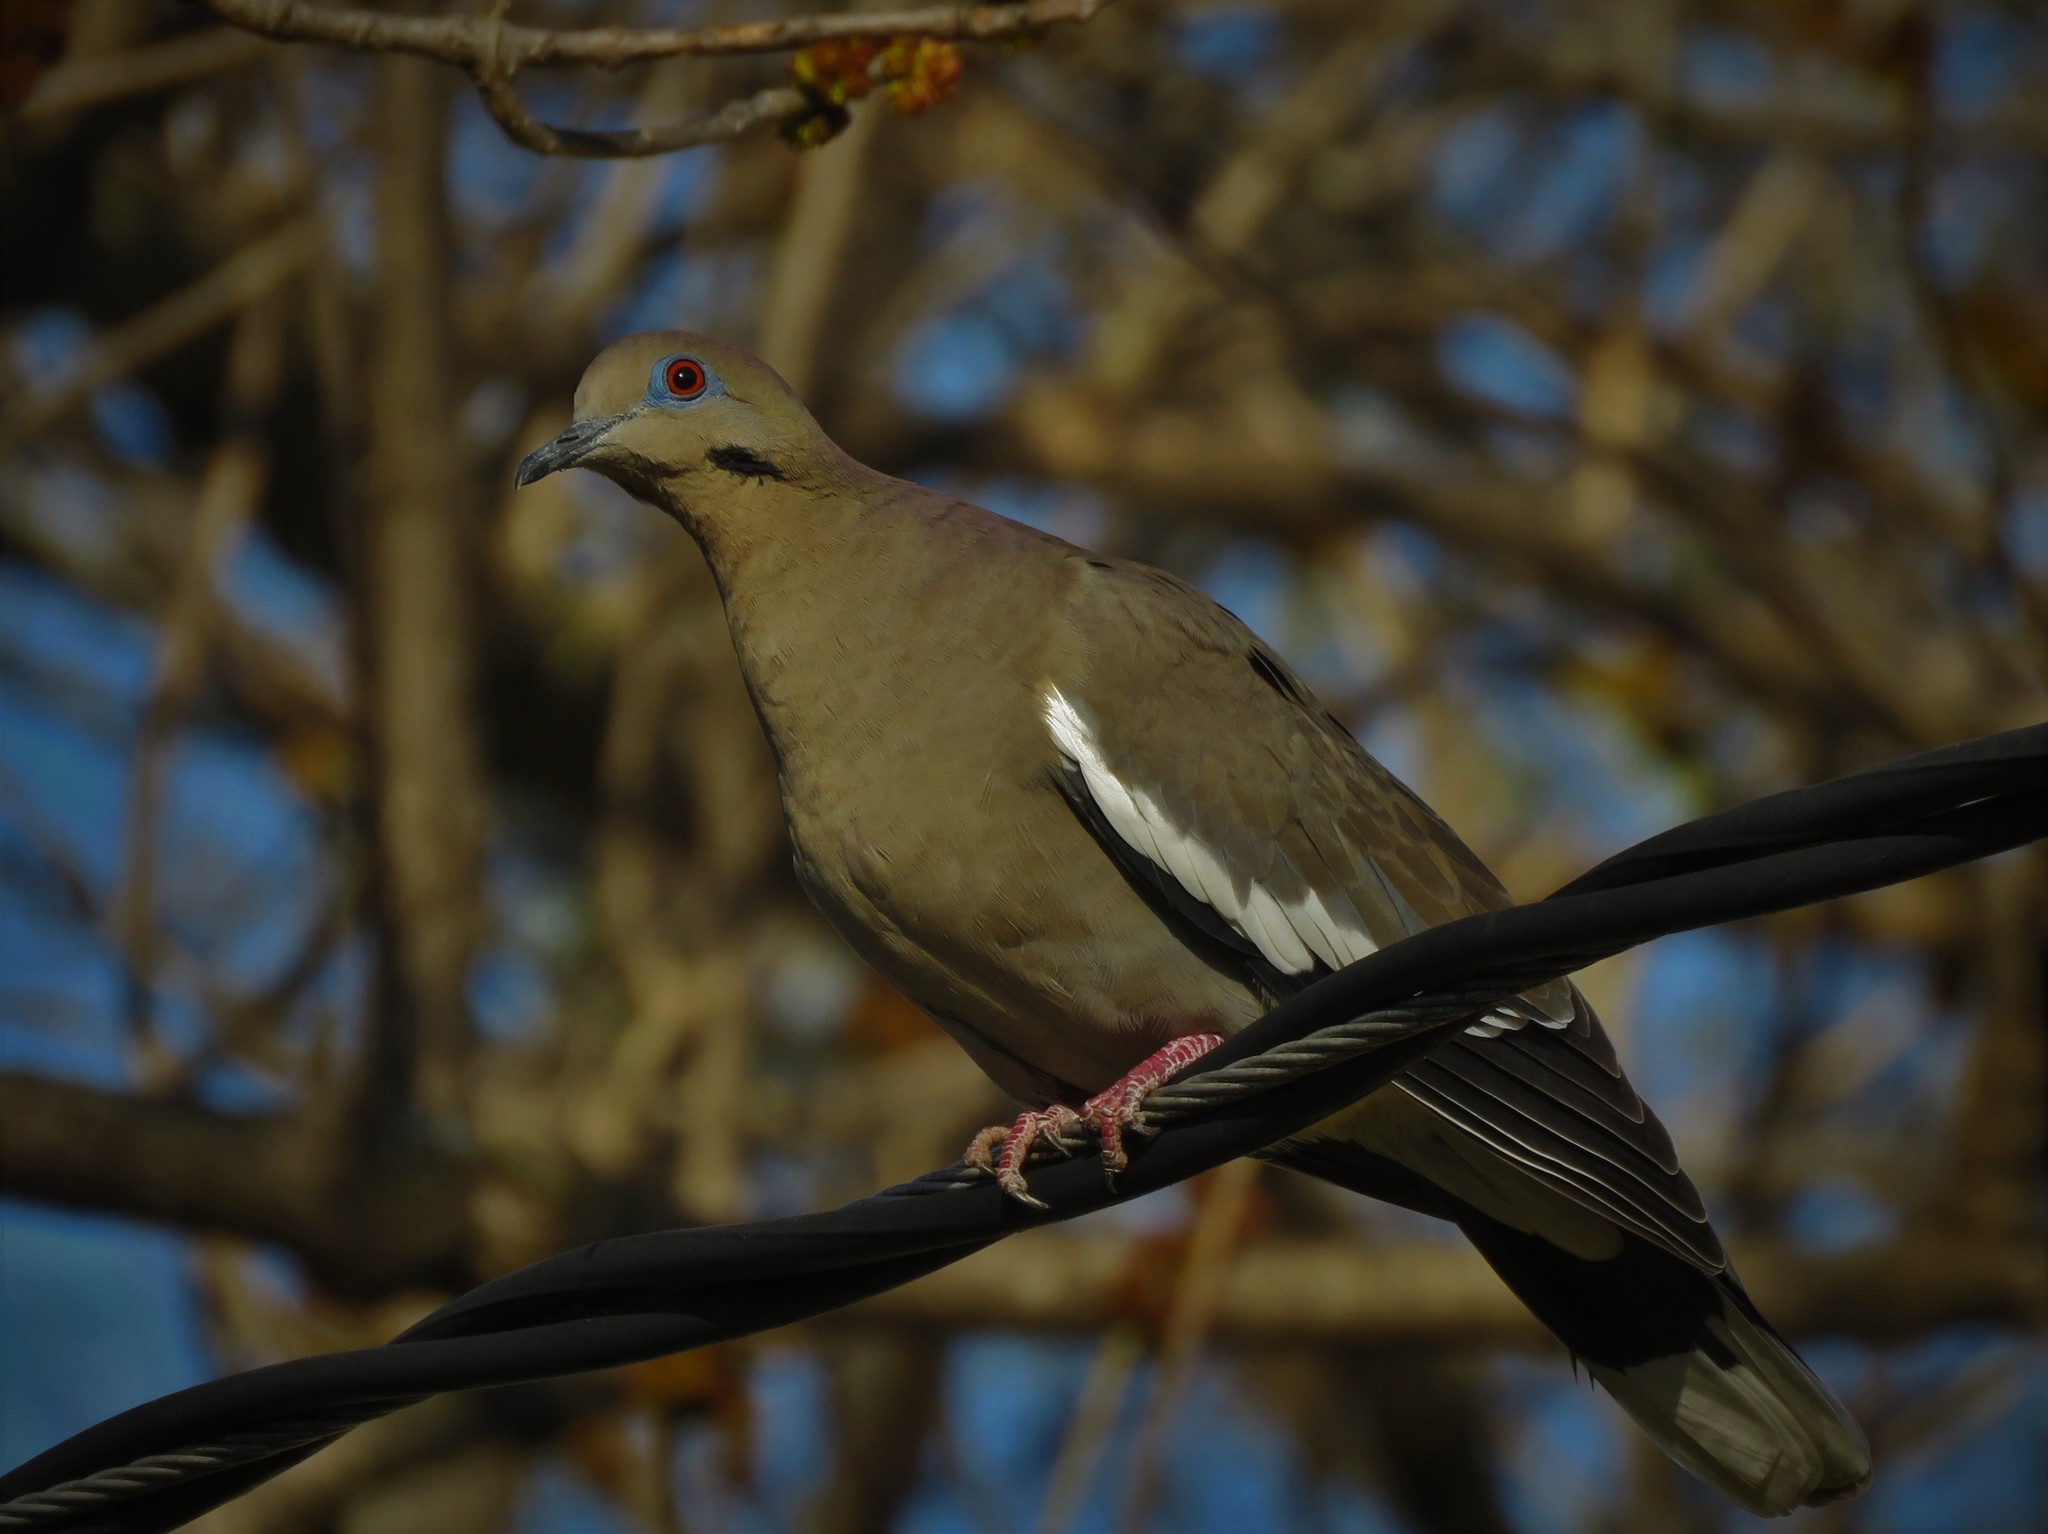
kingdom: Animalia
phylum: Chordata
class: Aves
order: Columbiformes
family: Columbidae
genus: Zenaida
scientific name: Zenaida asiatica
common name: White-winged dove
